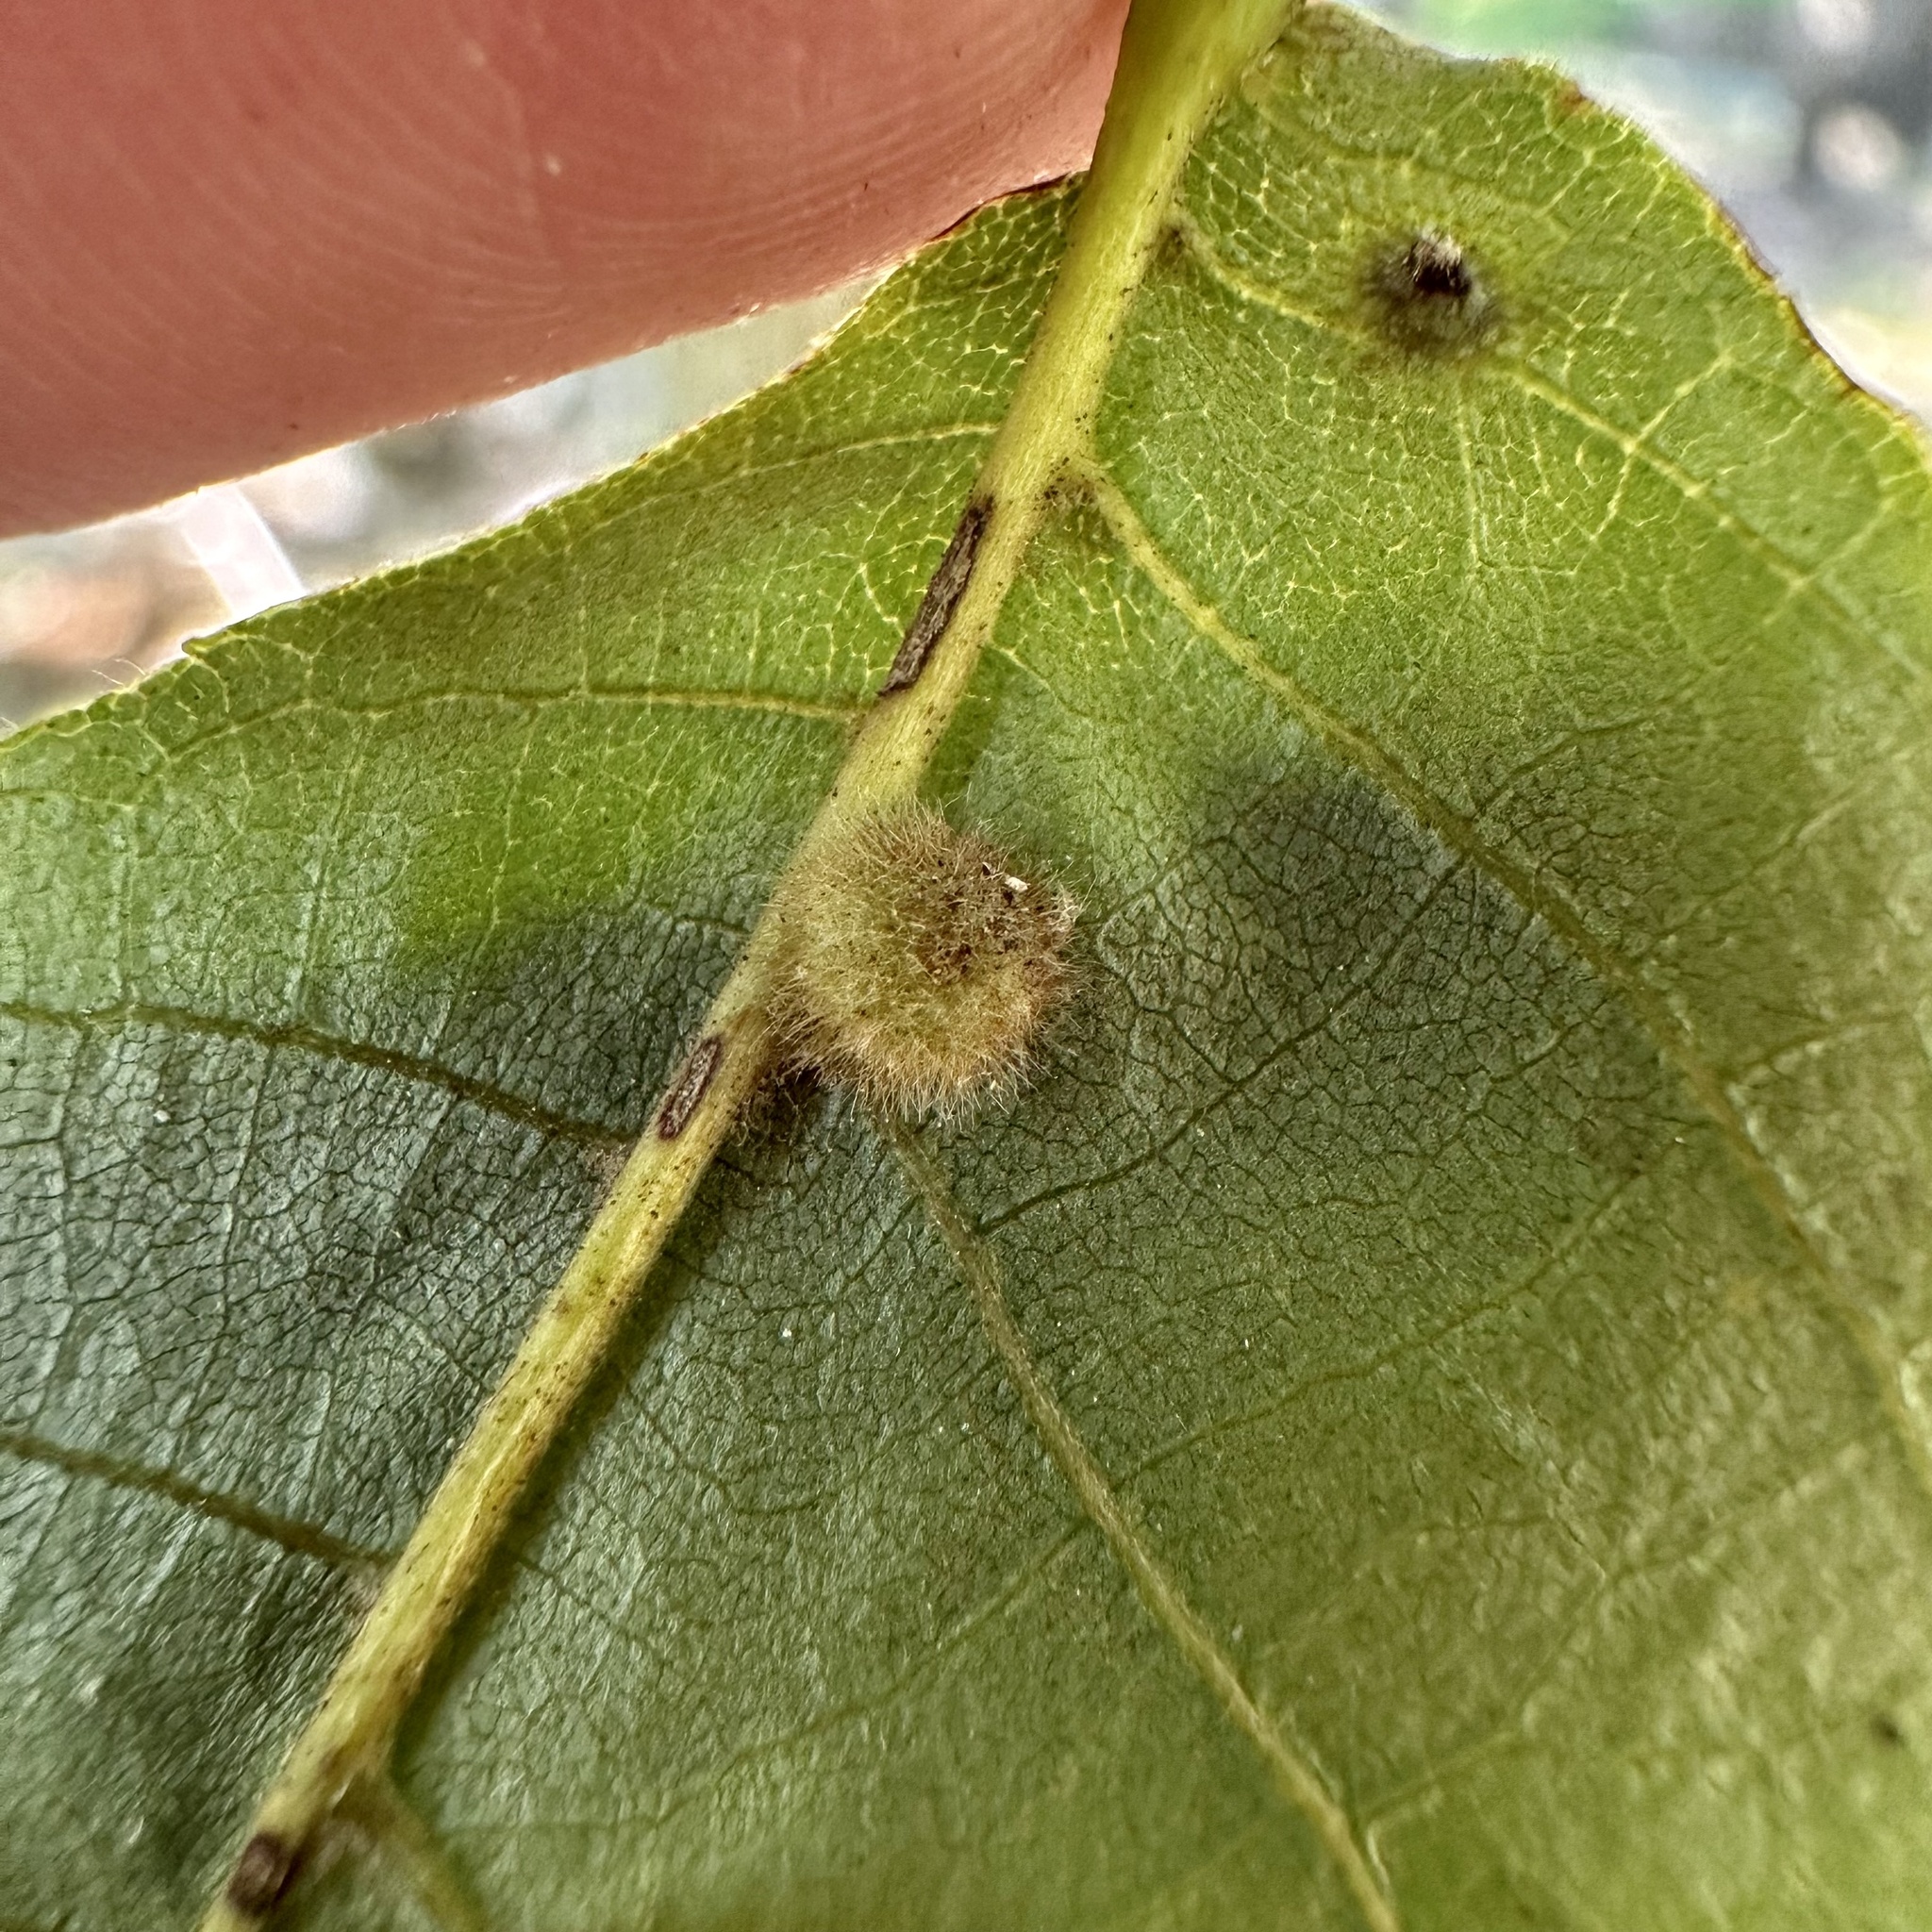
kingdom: Animalia
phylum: Arthropoda
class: Insecta
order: Diptera
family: Cecidomyiidae
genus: Caryomyia
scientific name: Caryomyia thompsoni
